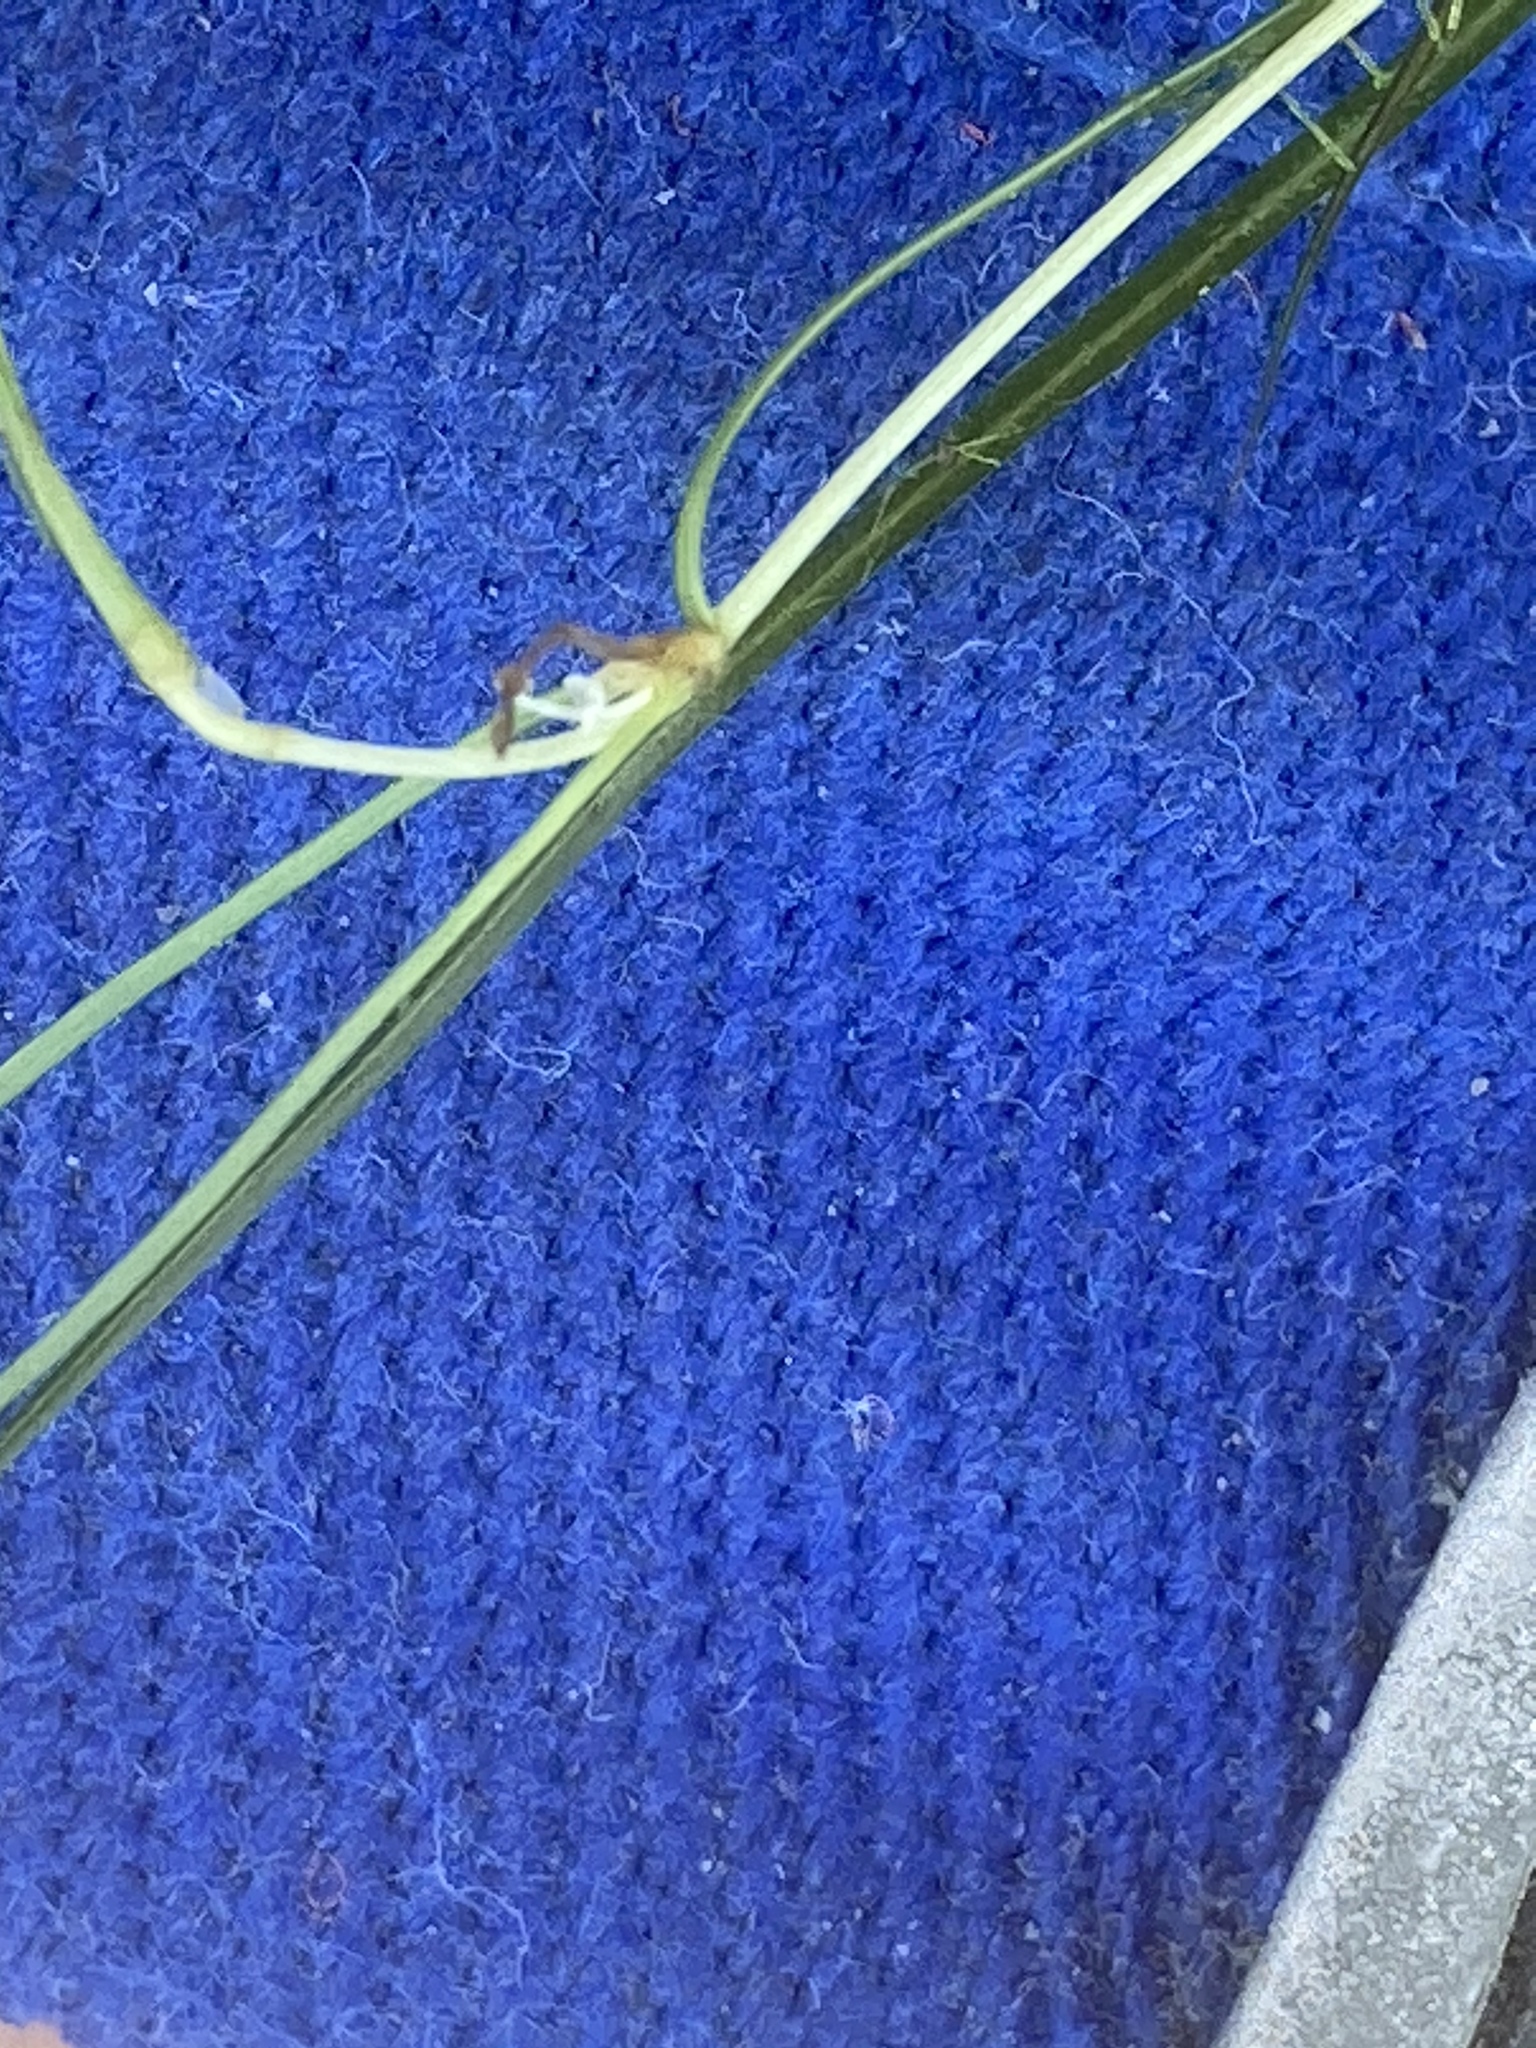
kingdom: Plantae
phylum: Tracheophyta
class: Liliopsida
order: Alismatales
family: Potamogetonaceae
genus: Zannichellia
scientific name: Zannichellia palustris
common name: Horned pondweed
